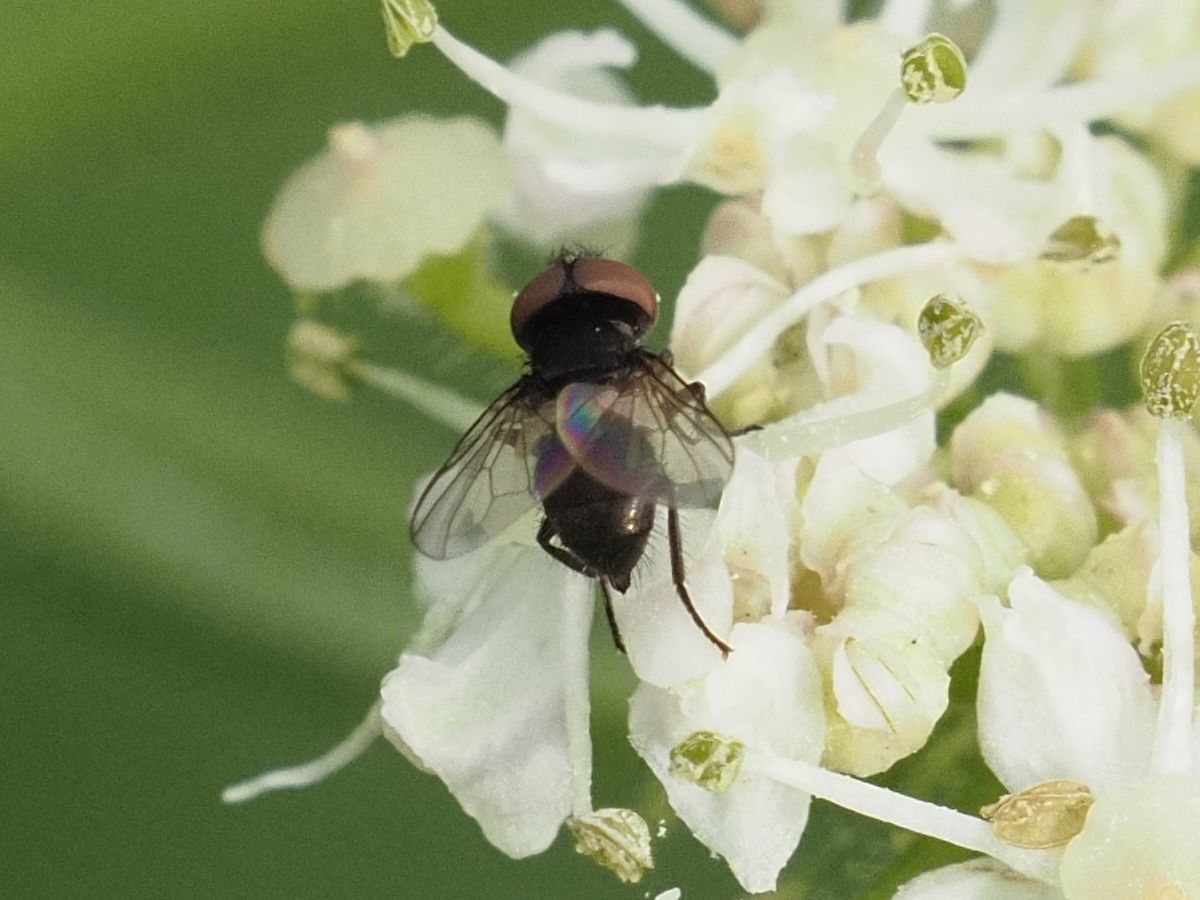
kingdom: Animalia
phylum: Arthropoda
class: Insecta
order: Diptera
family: Tachinidae
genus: Phasia
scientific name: Phasia barbifrons
